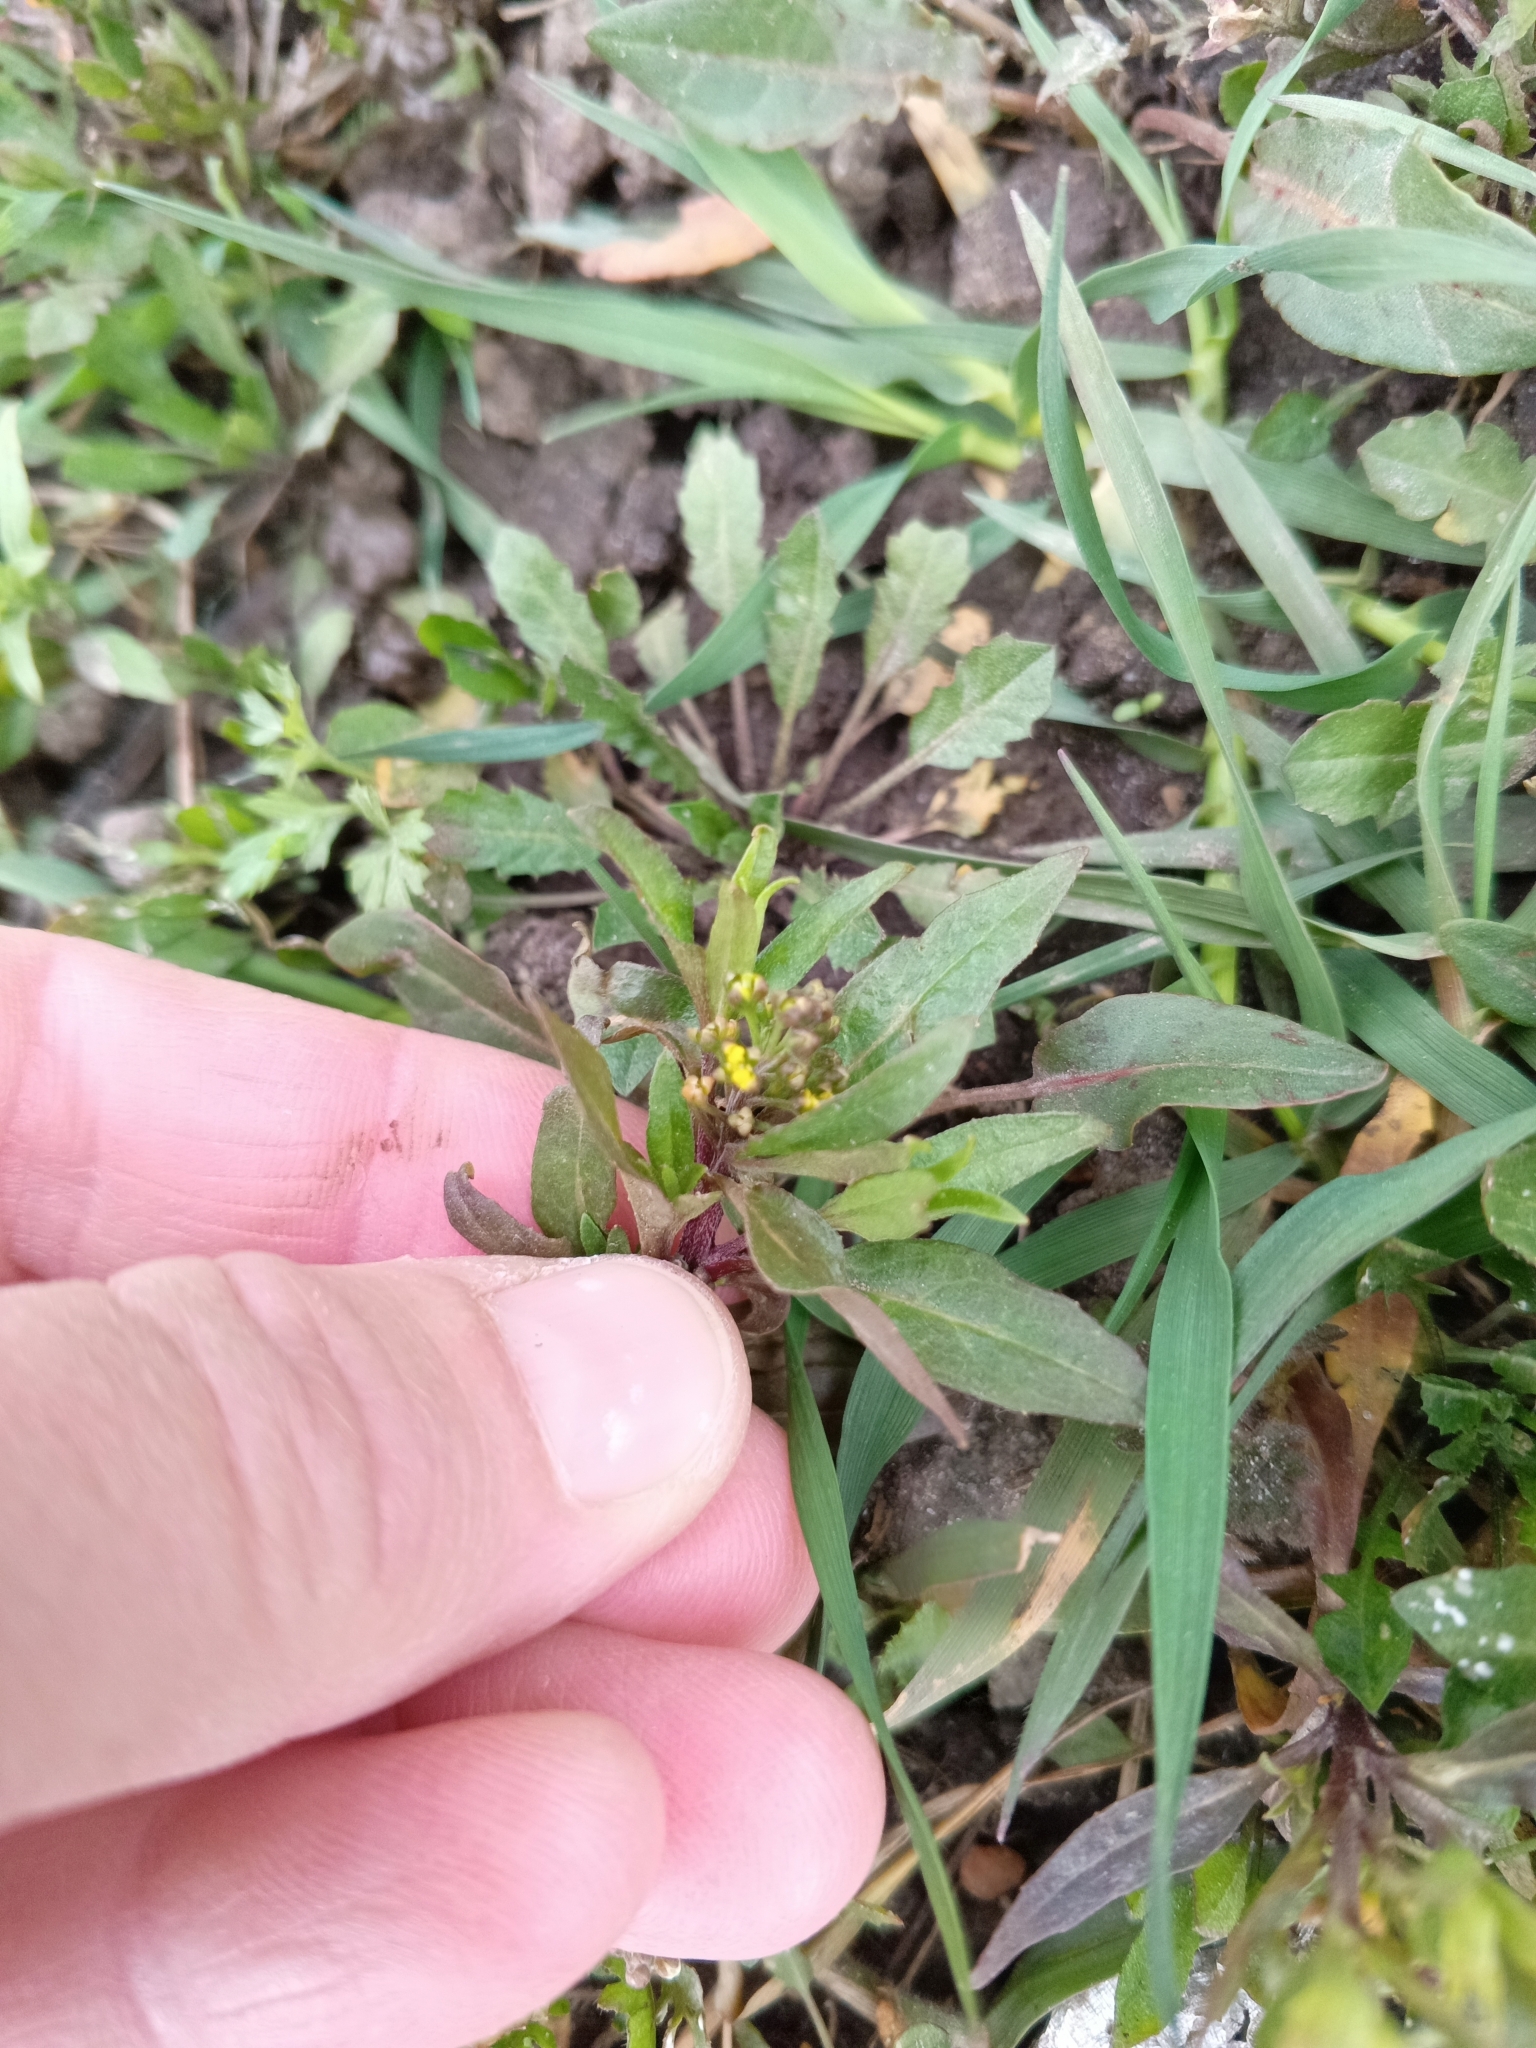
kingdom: Plantae
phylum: Tracheophyta
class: Magnoliopsida
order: Brassicales
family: Brassicaceae
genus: Erysimum
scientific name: Erysimum cheiranthoides
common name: Treacle mustard
